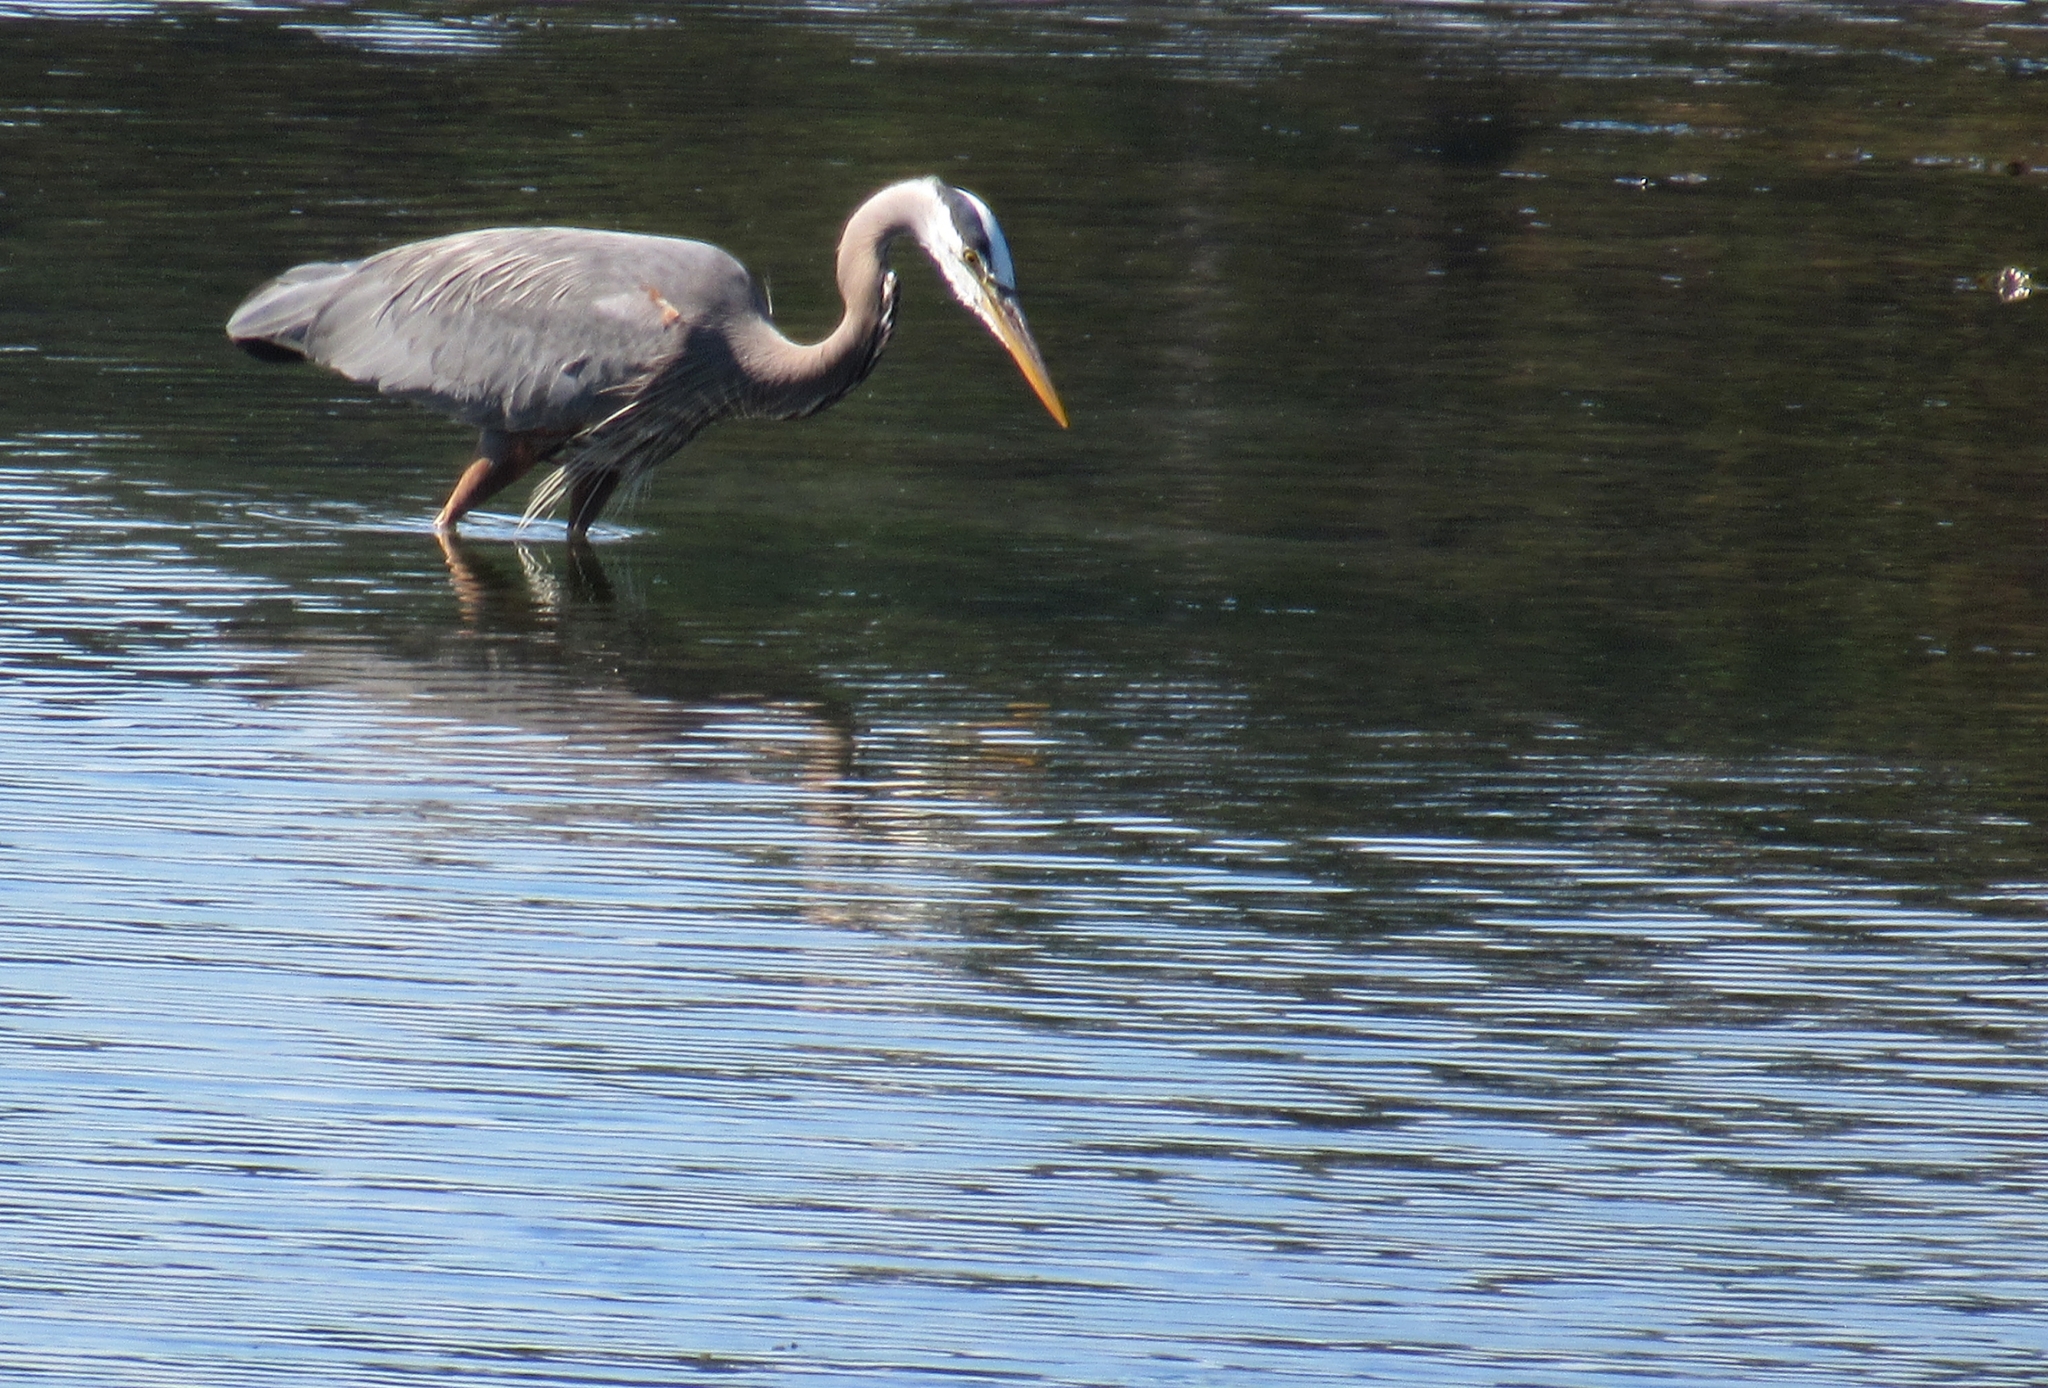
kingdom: Animalia
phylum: Chordata
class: Aves
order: Pelecaniformes
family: Ardeidae
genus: Ardea
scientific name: Ardea herodias
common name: Great blue heron
